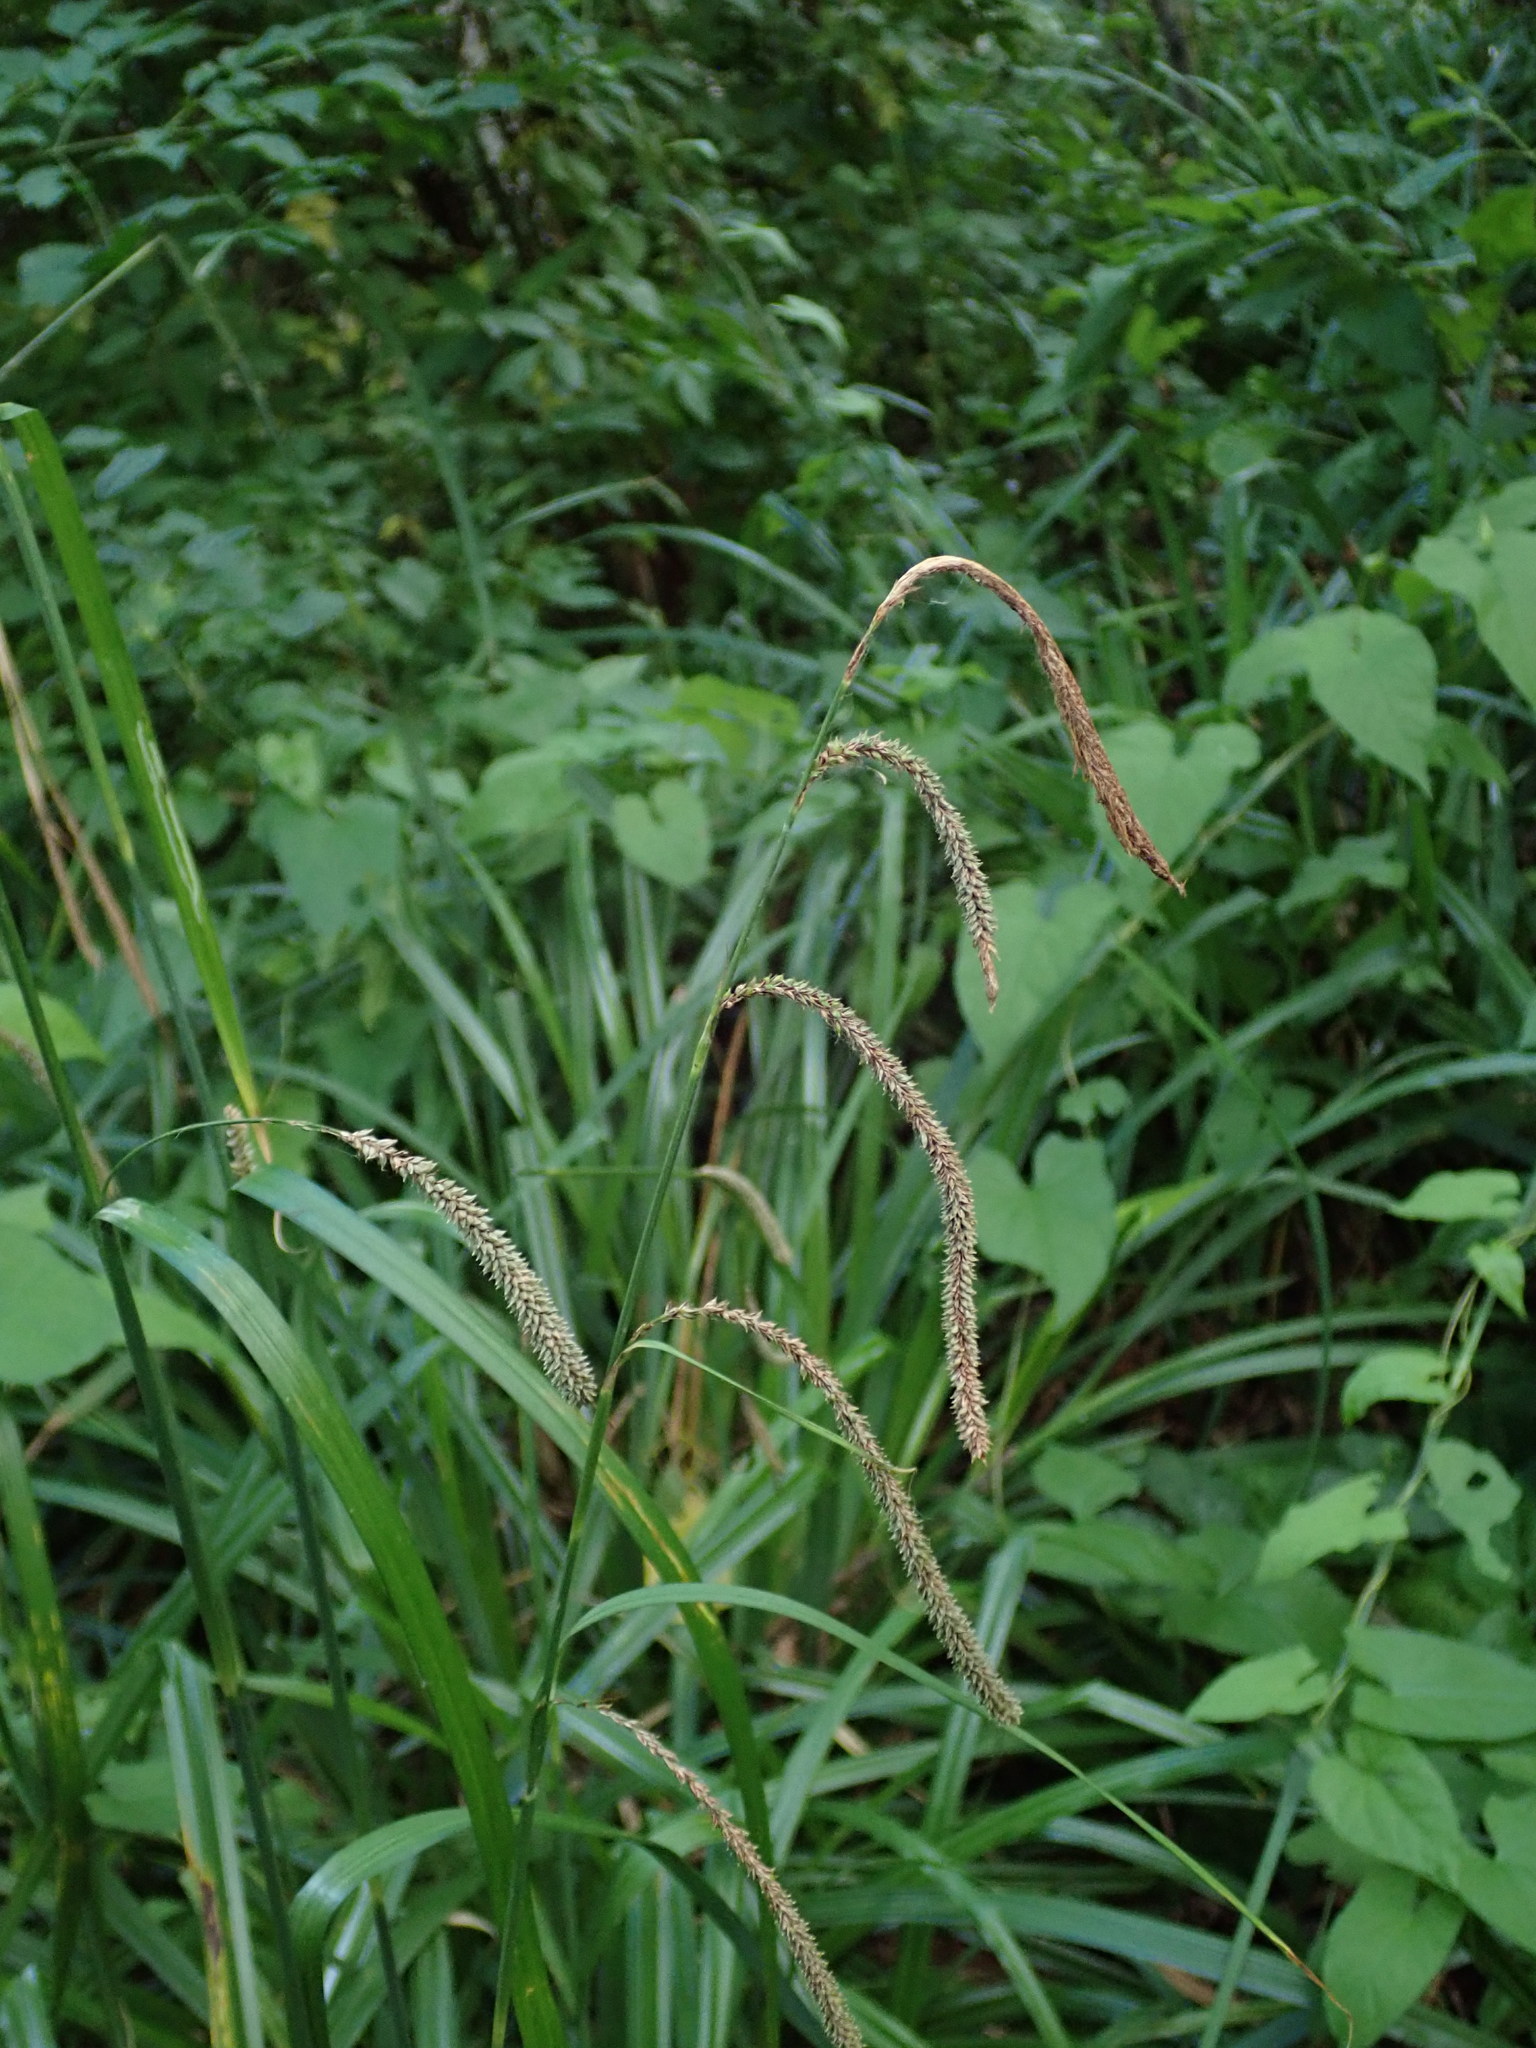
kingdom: Plantae
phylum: Tracheophyta
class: Liliopsida
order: Poales
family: Cyperaceae
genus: Carex
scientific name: Carex pendula
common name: Pendulous sedge
